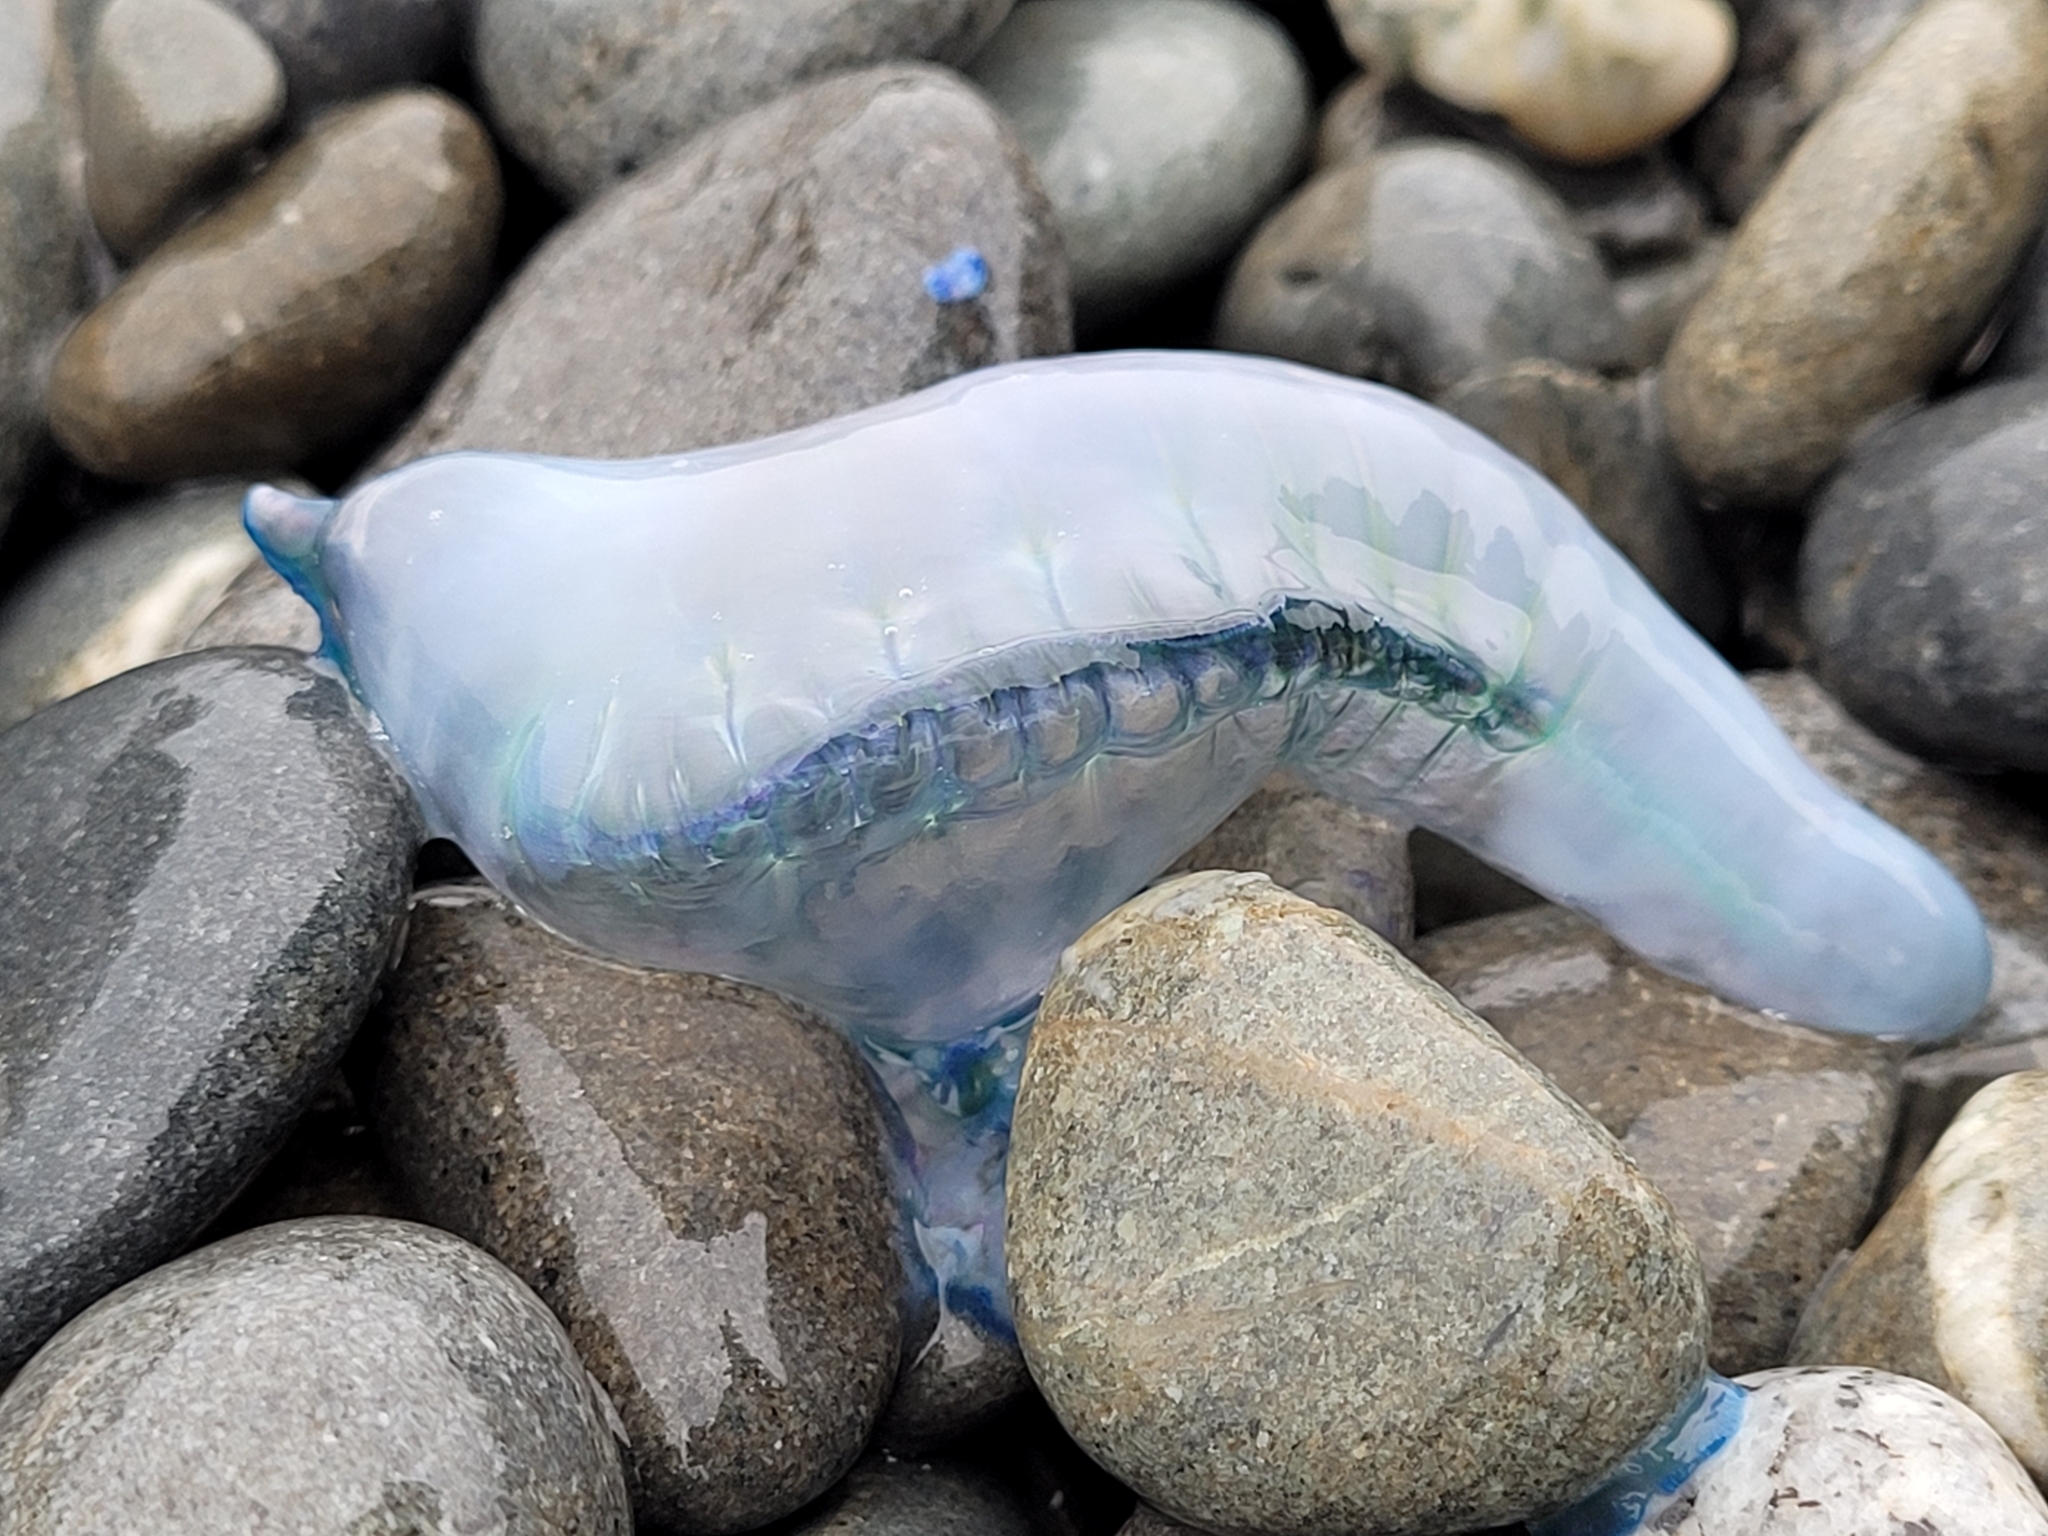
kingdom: Animalia
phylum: Cnidaria
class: Hydrozoa
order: Siphonophorae
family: Physaliidae
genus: Physalia
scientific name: Physalia physalis
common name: Portuguese man-of-war
